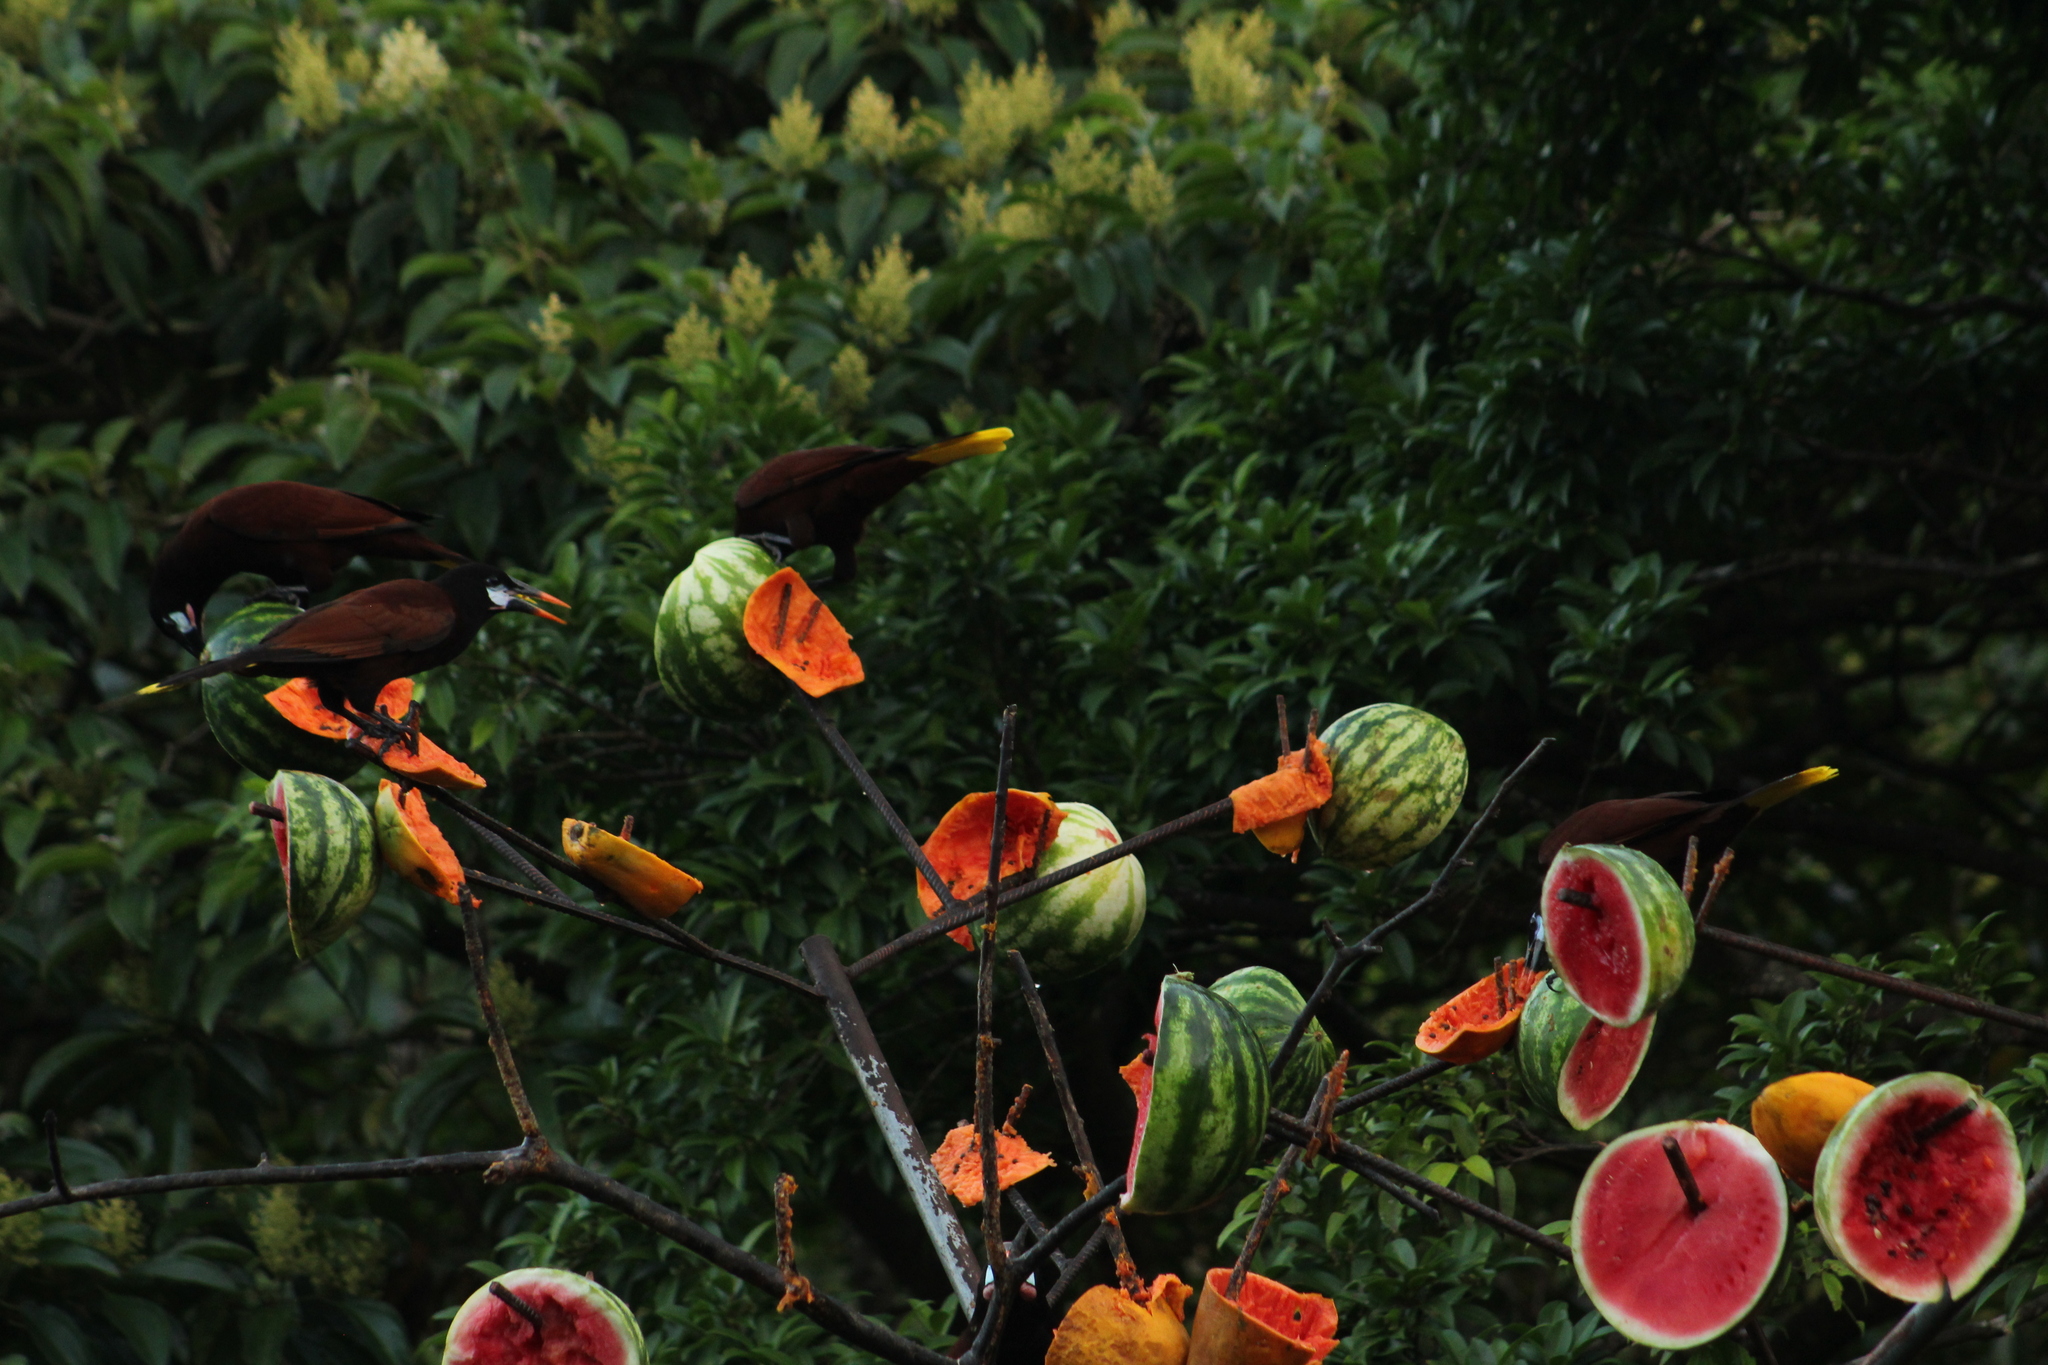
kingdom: Animalia
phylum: Chordata
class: Aves
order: Passeriformes
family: Icteridae
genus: Psarocolius
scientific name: Psarocolius montezuma
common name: Montezuma oropendola
